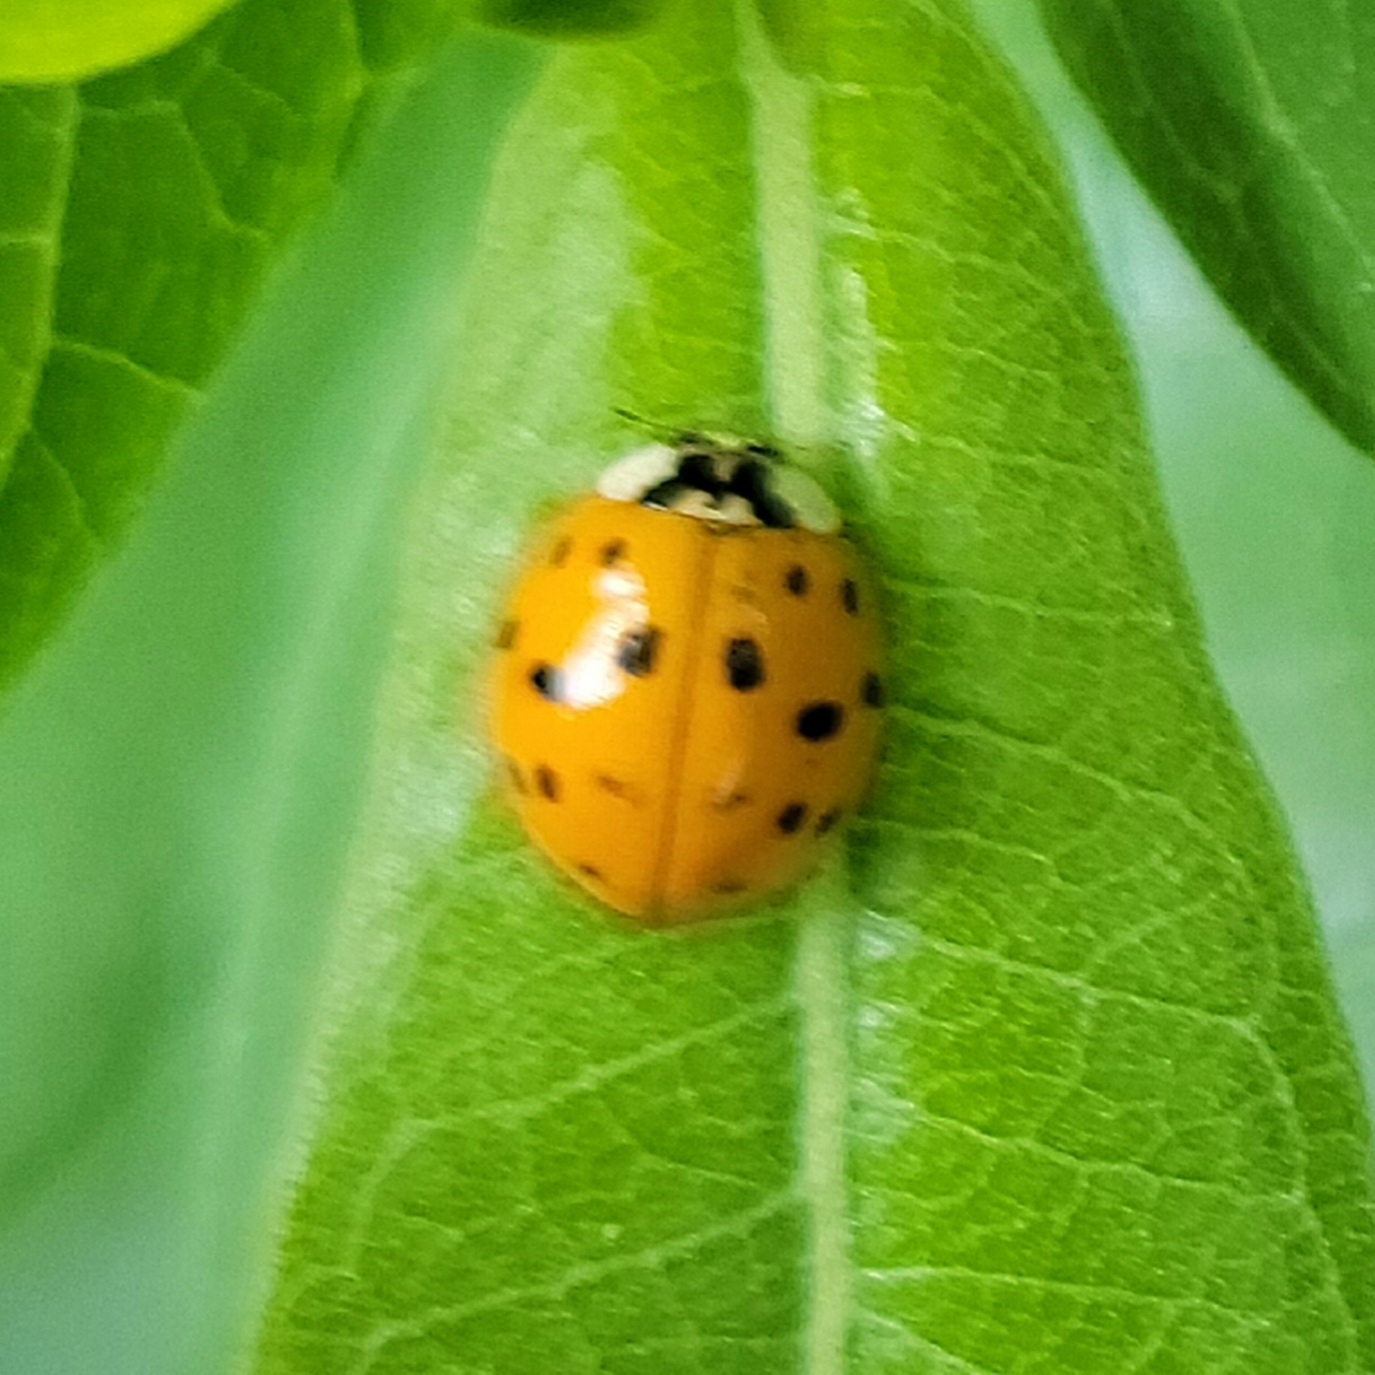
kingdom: Animalia
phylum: Arthropoda
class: Insecta
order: Coleoptera
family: Coccinellidae
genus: Harmonia
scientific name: Harmonia axyridis
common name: Harlequin ladybird
